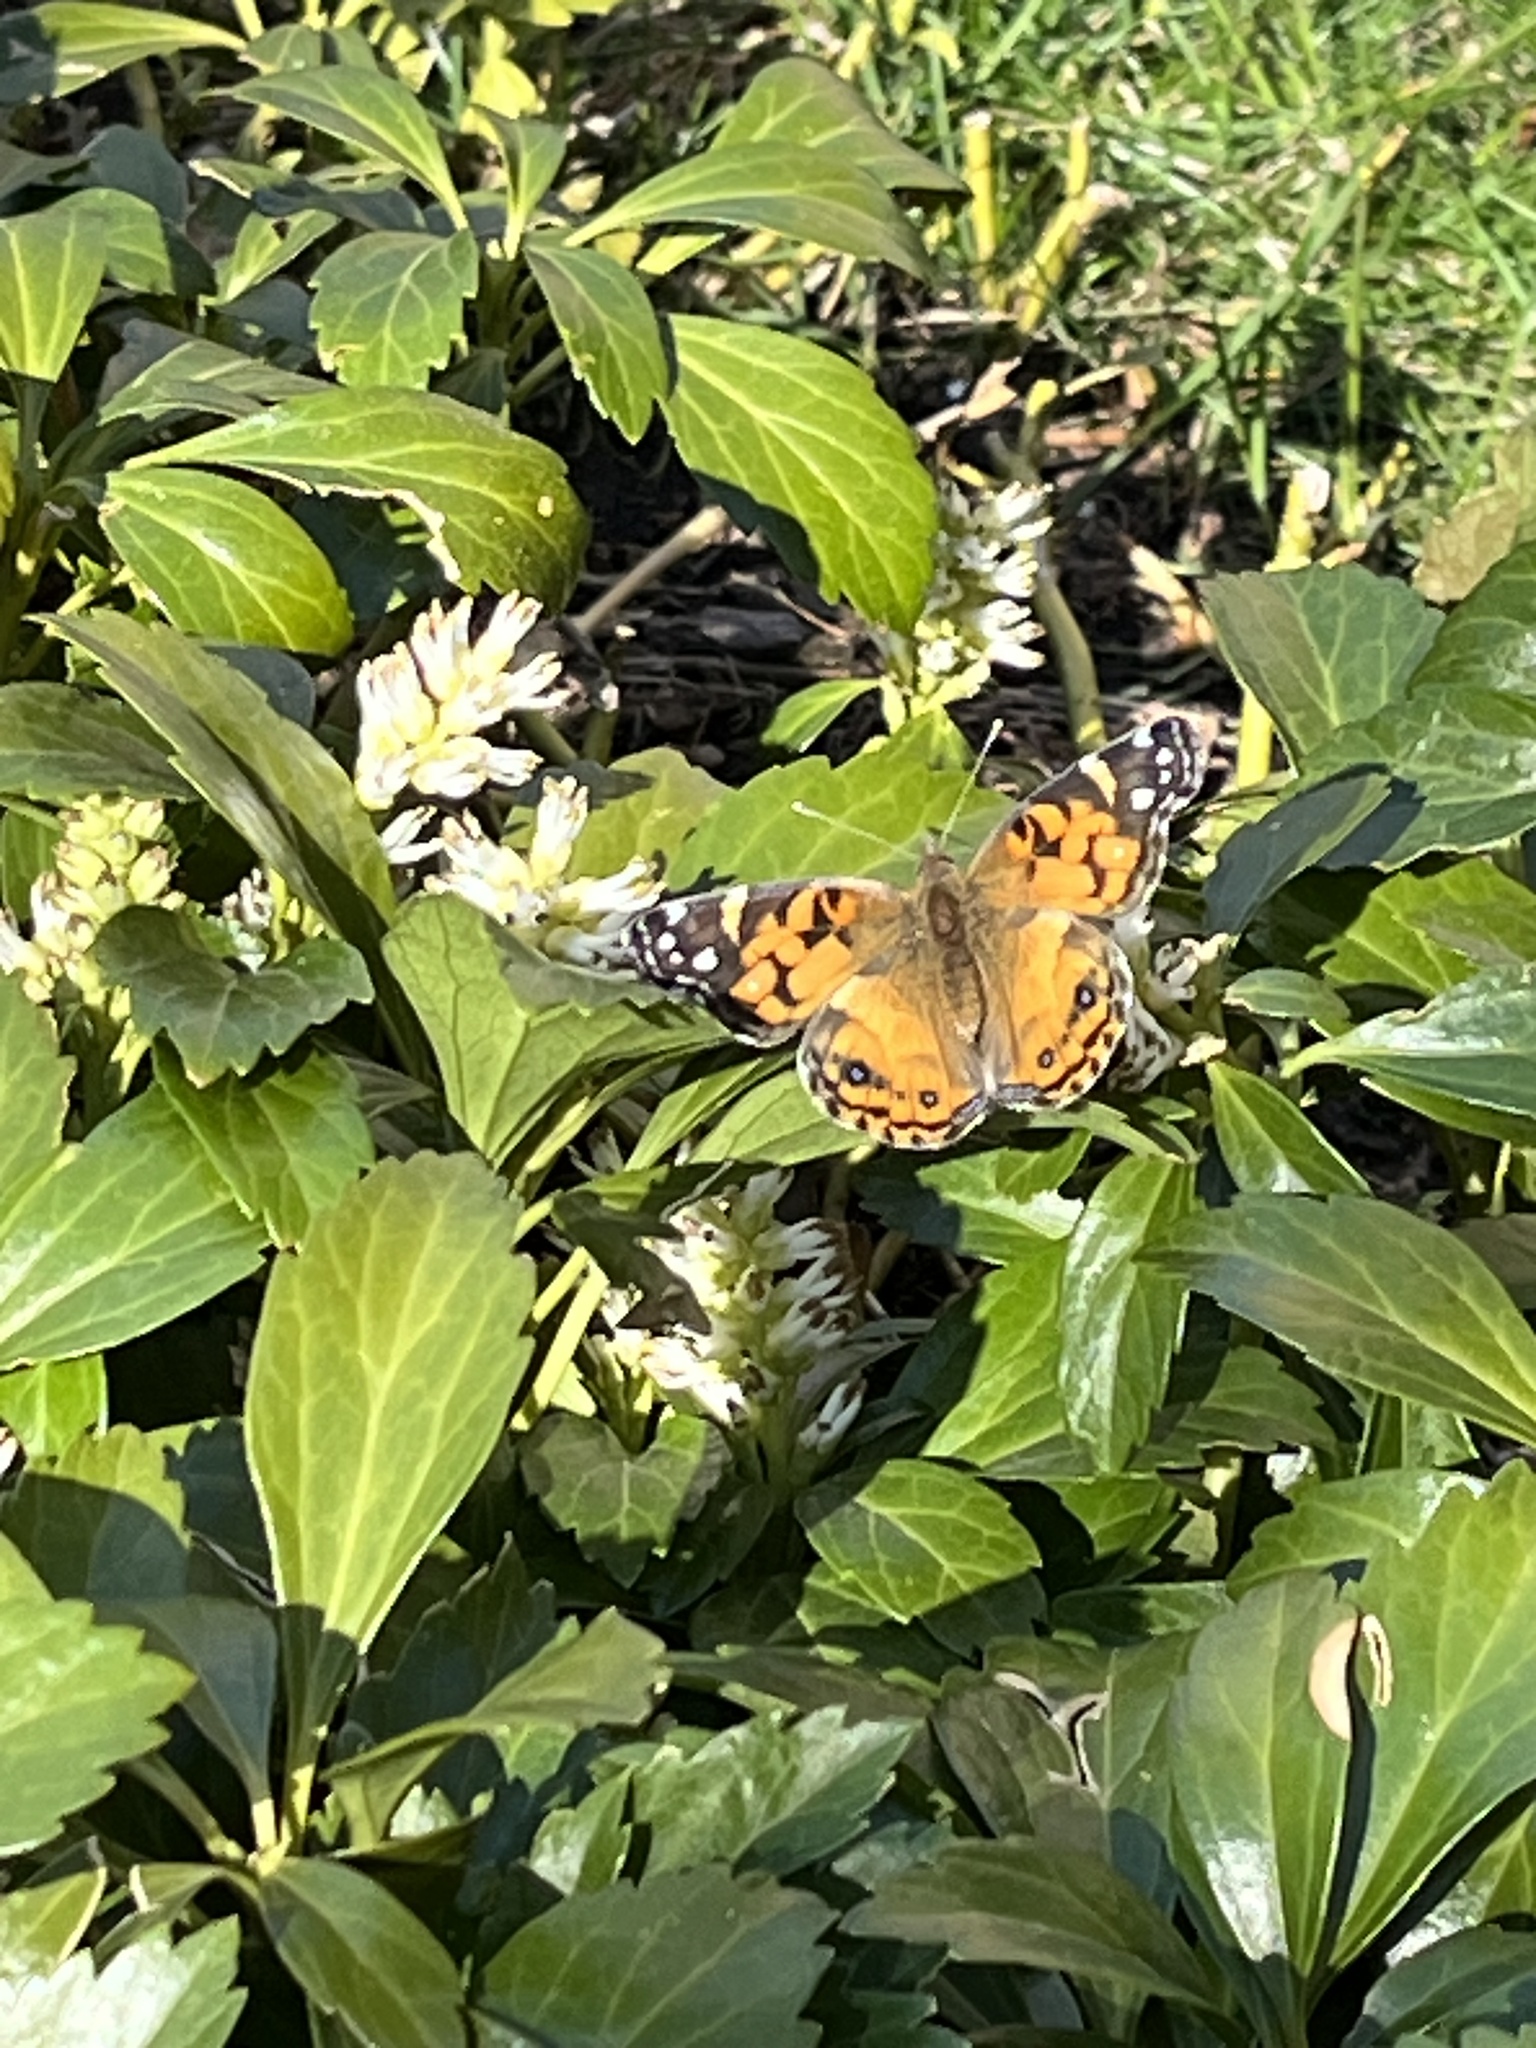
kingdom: Animalia
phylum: Arthropoda
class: Insecta
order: Lepidoptera
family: Nymphalidae
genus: Vanessa
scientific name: Vanessa virginiensis
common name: American lady
